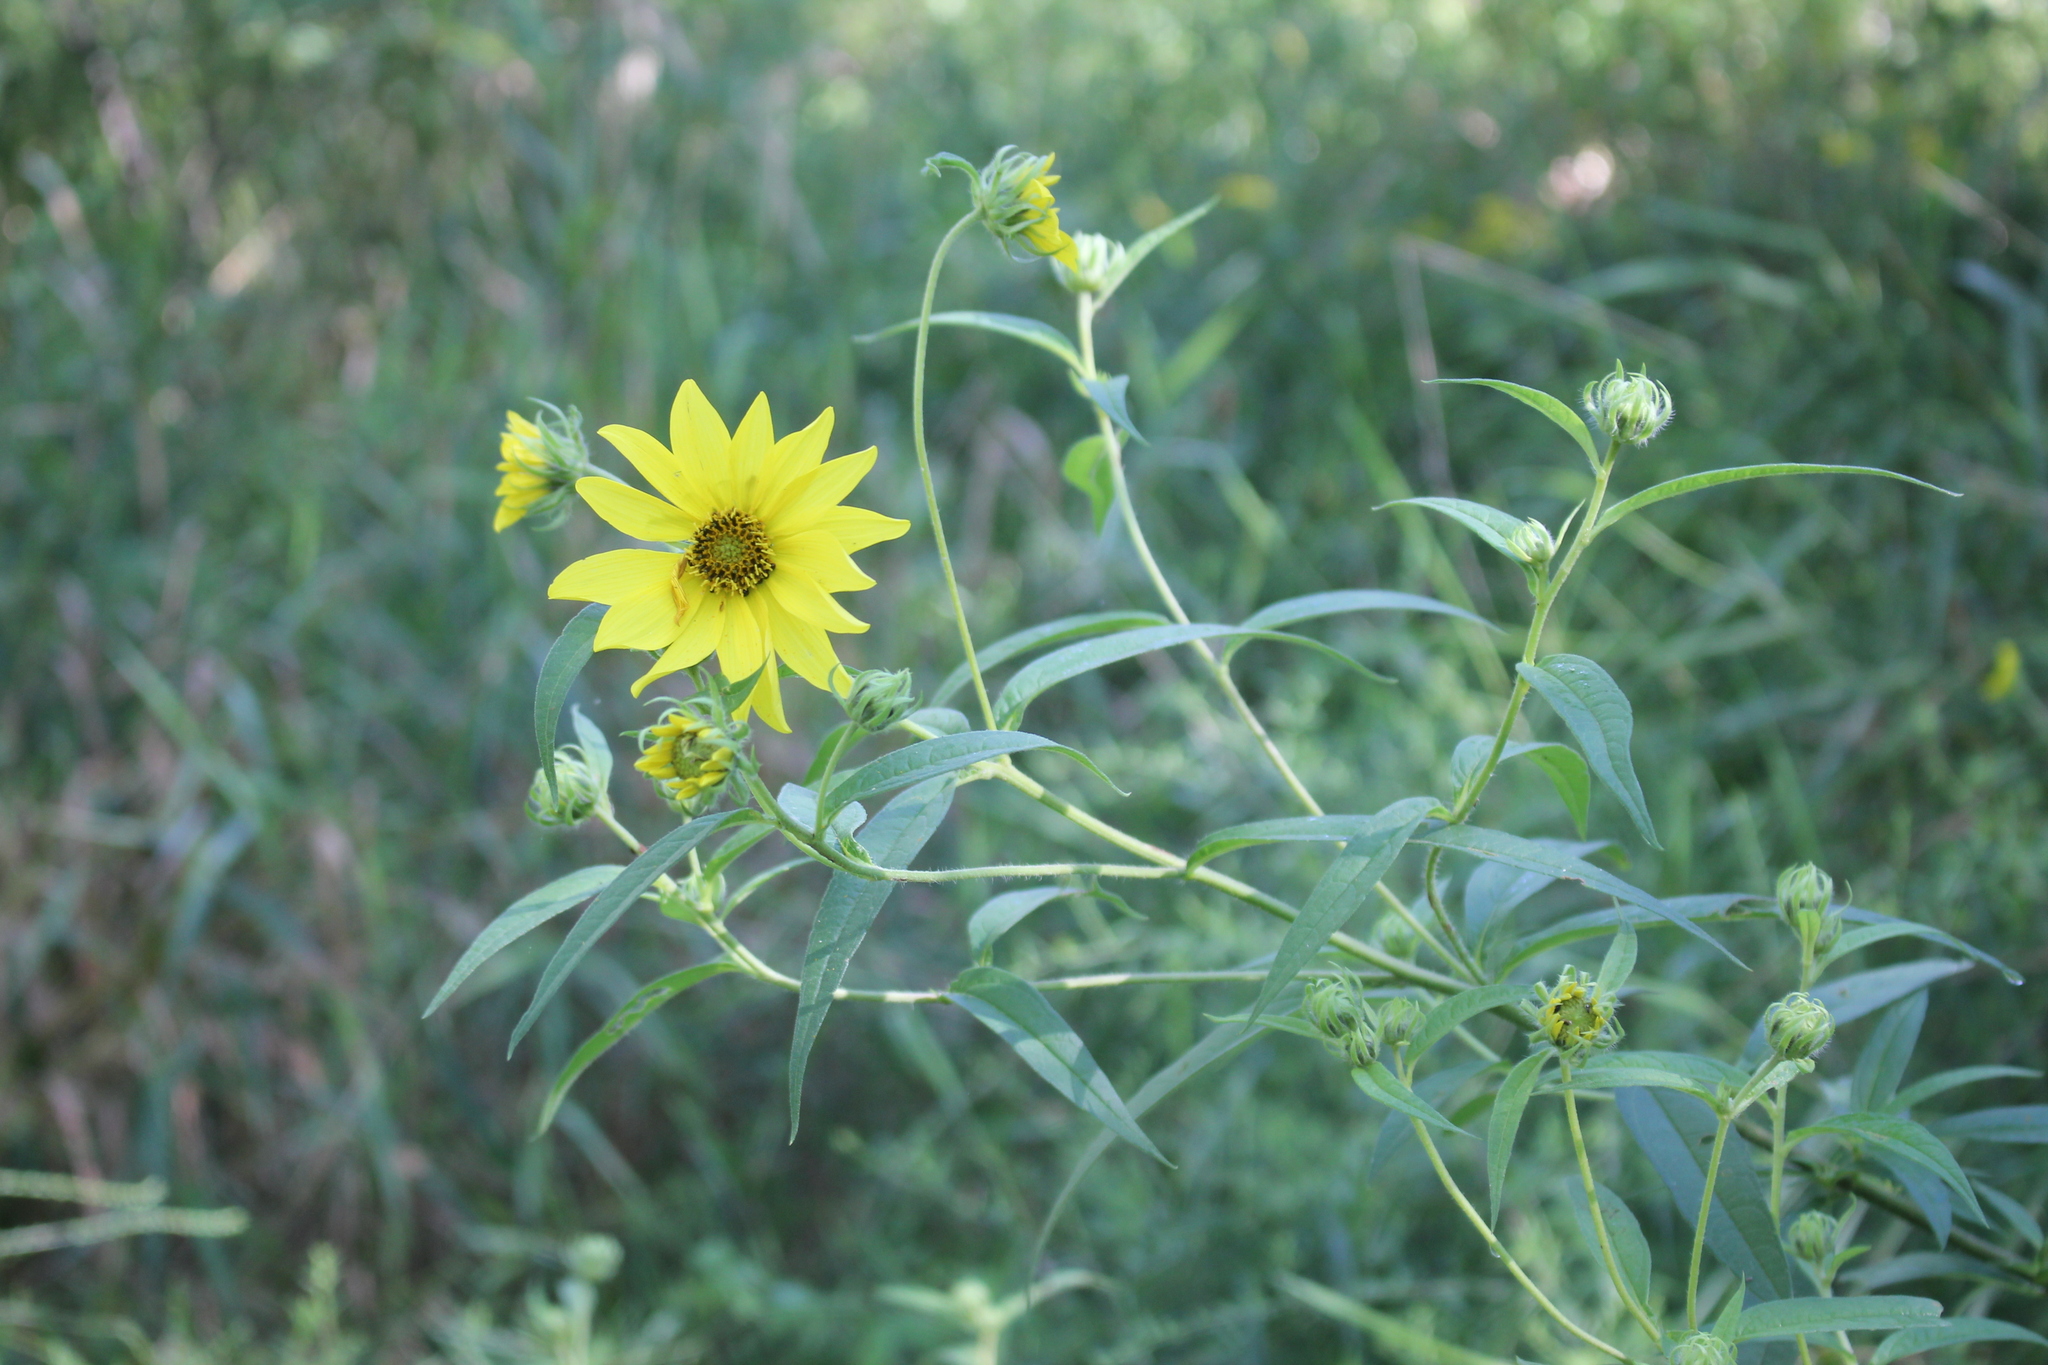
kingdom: Plantae
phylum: Tracheophyta
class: Magnoliopsida
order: Asterales
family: Asteraceae
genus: Helianthus
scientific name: Helianthus giganteus
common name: Giant sunflower
